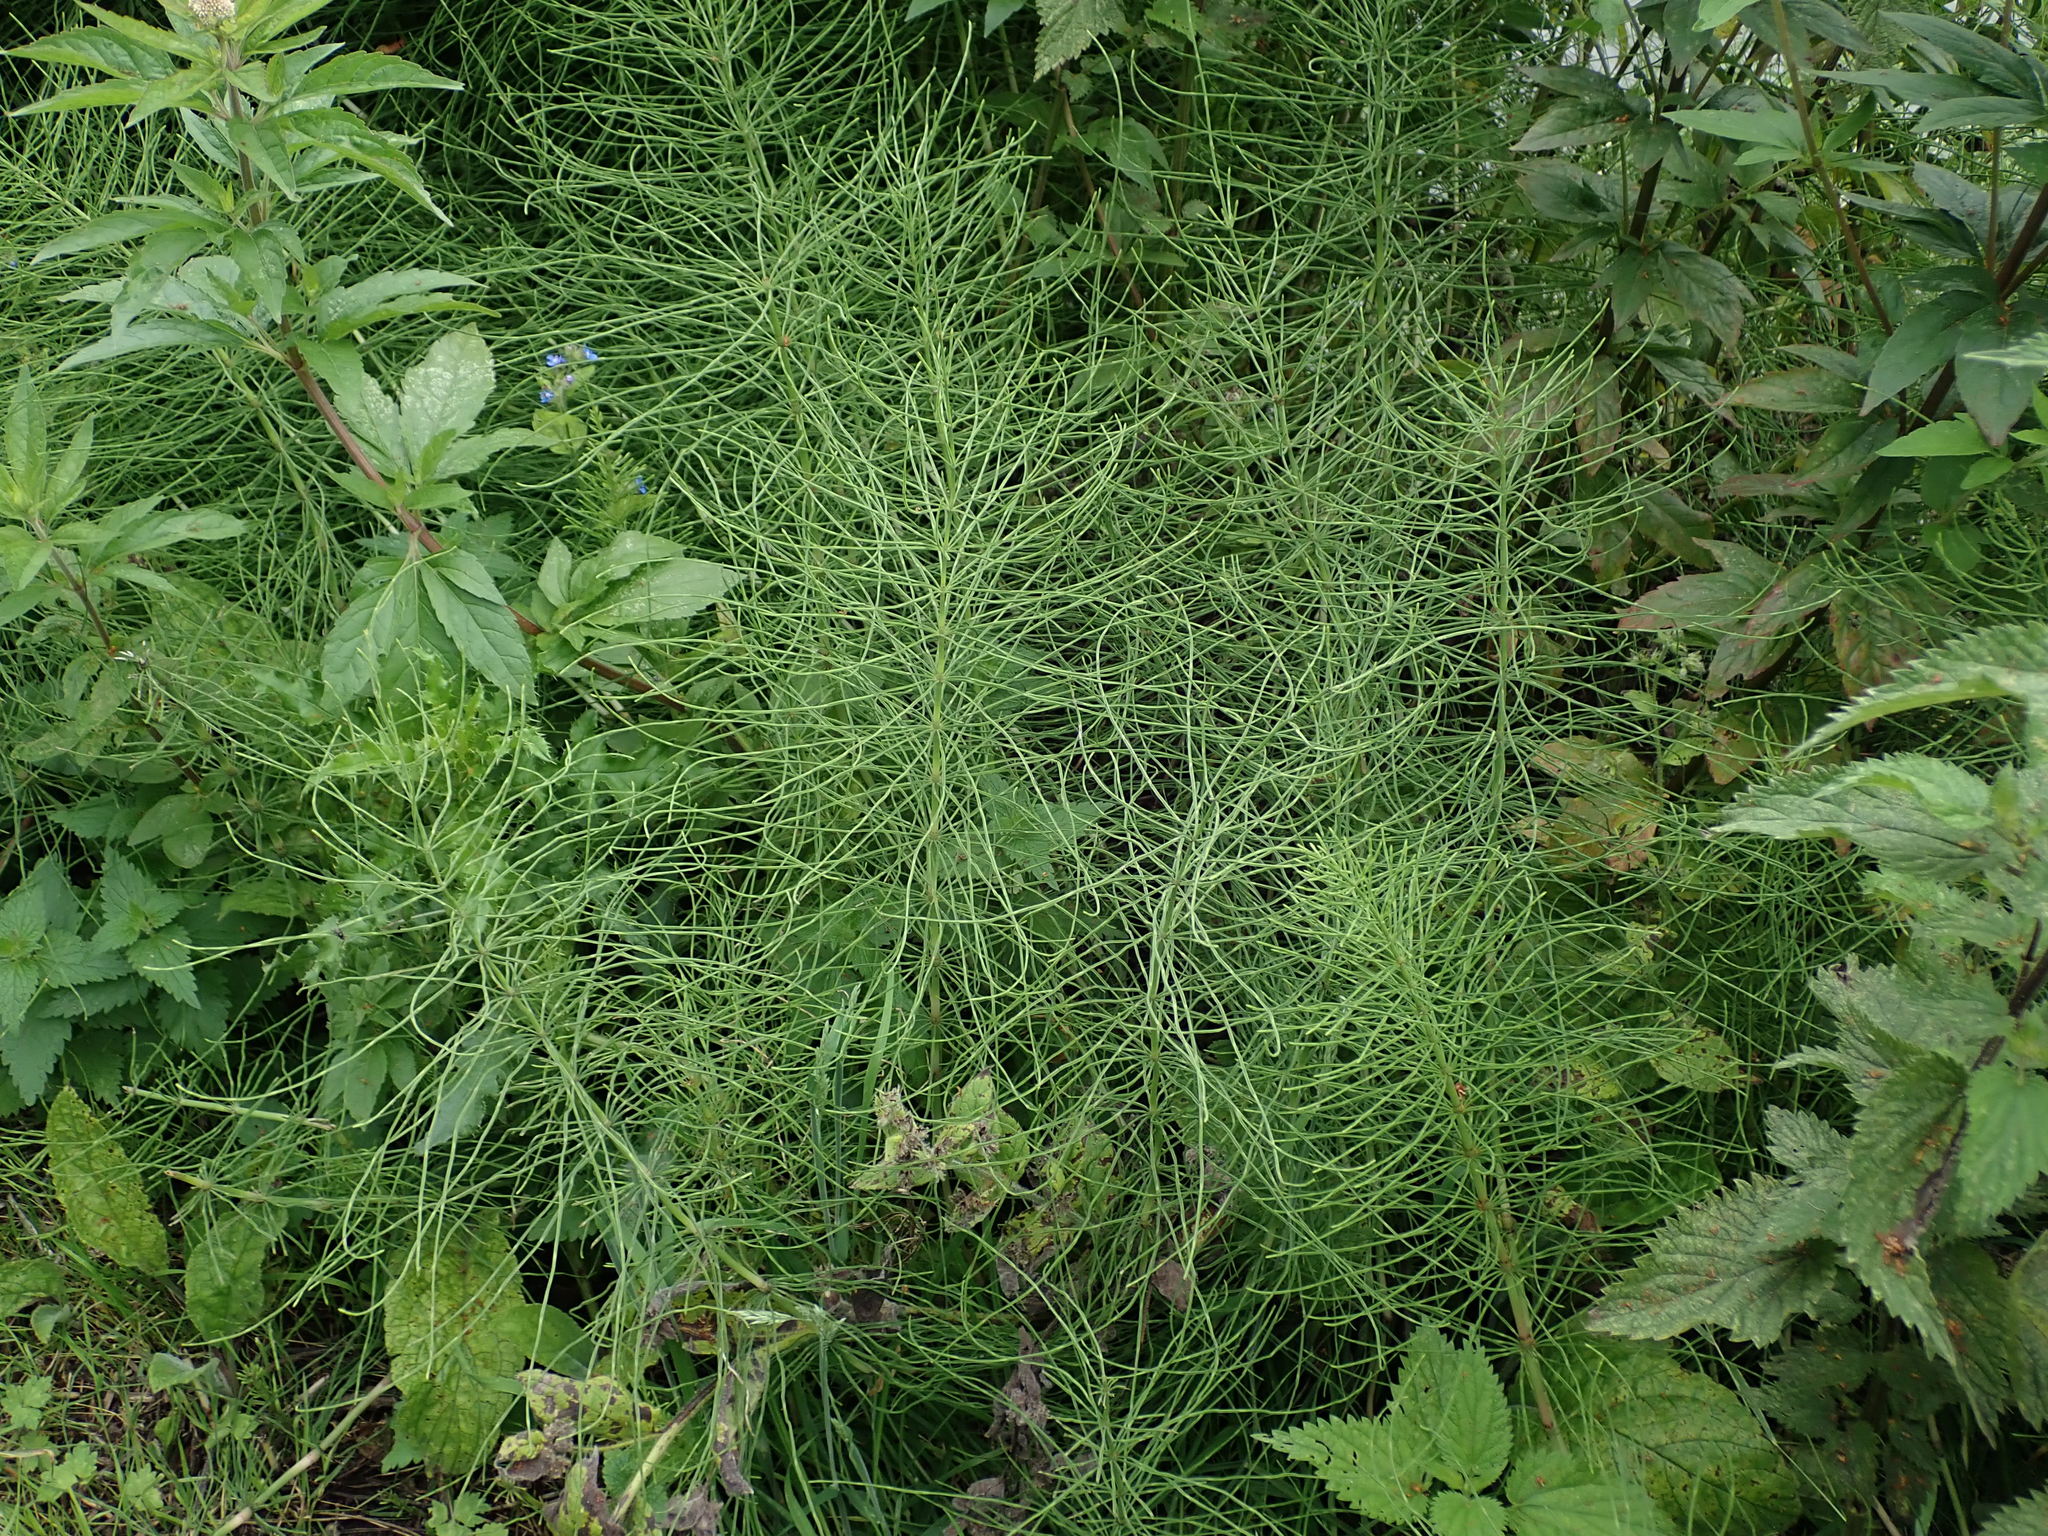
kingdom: Plantae
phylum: Tracheophyta
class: Polypodiopsida
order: Equisetales
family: Equisetaceae
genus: Equisetum
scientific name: Equisetum arvense
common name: Field horsetail
